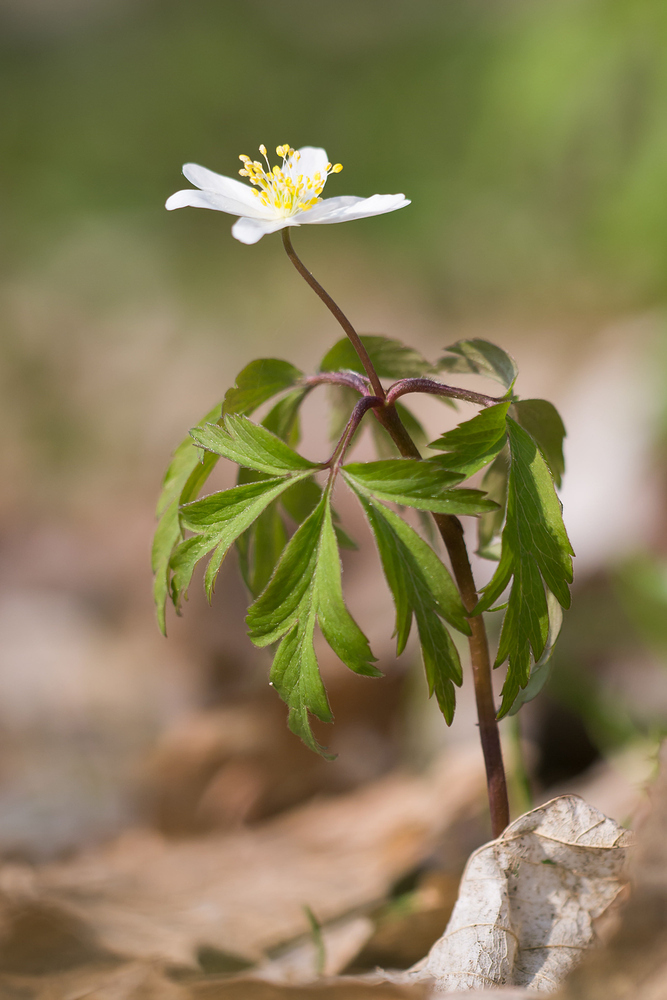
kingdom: Plantae
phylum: Tracheophyta
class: Magnoliopsida
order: Ranunculales
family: Ranunculaceae
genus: Anemone
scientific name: Anemone nemorosa
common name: Wood anemone
